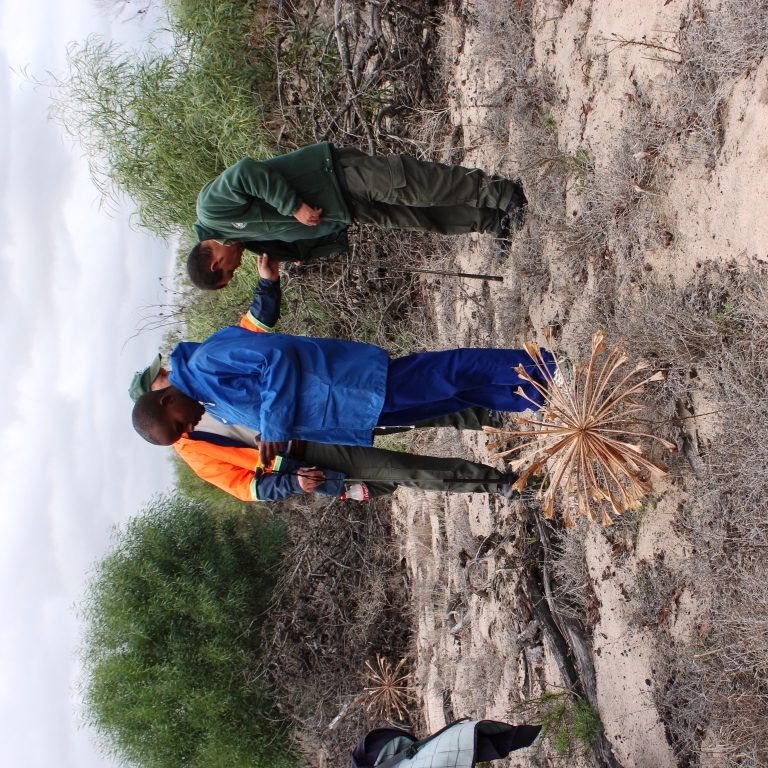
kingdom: Plantae
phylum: Tracheophyta
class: Liliopsida
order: Asparagales
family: Amaryllidaceae
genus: Brunsvigia
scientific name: Brunsvigia orientalis
